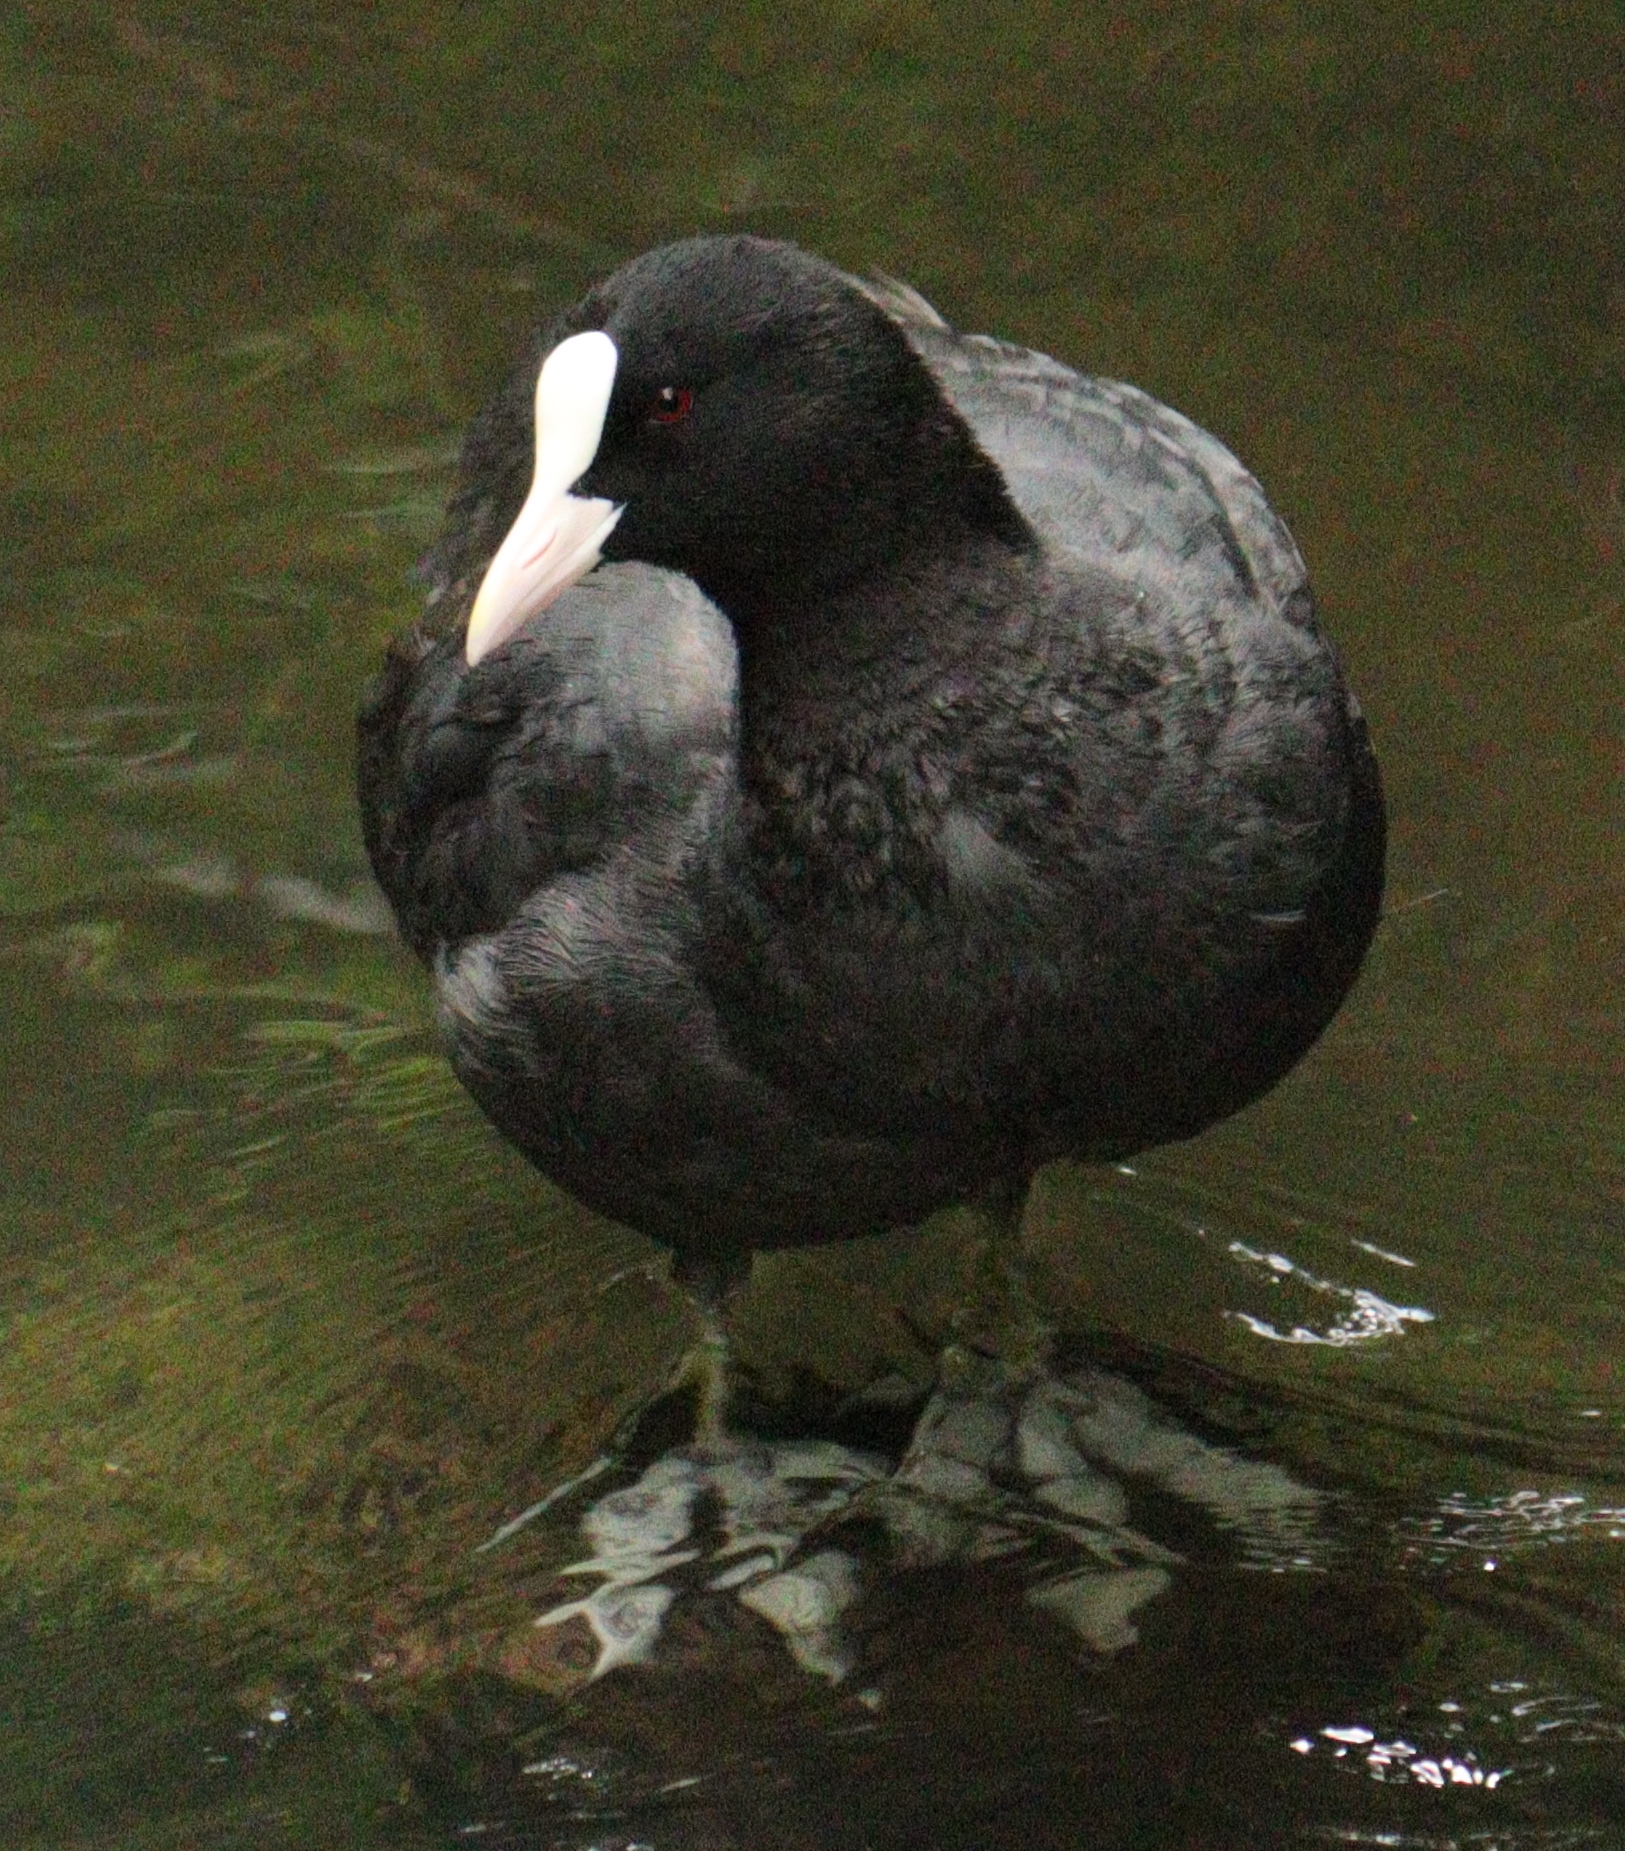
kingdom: Animalia
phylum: Chordata
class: Aves
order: Gruiformes
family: Rallidae
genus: Fulica
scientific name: Fulica atra
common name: Eurasian coot
